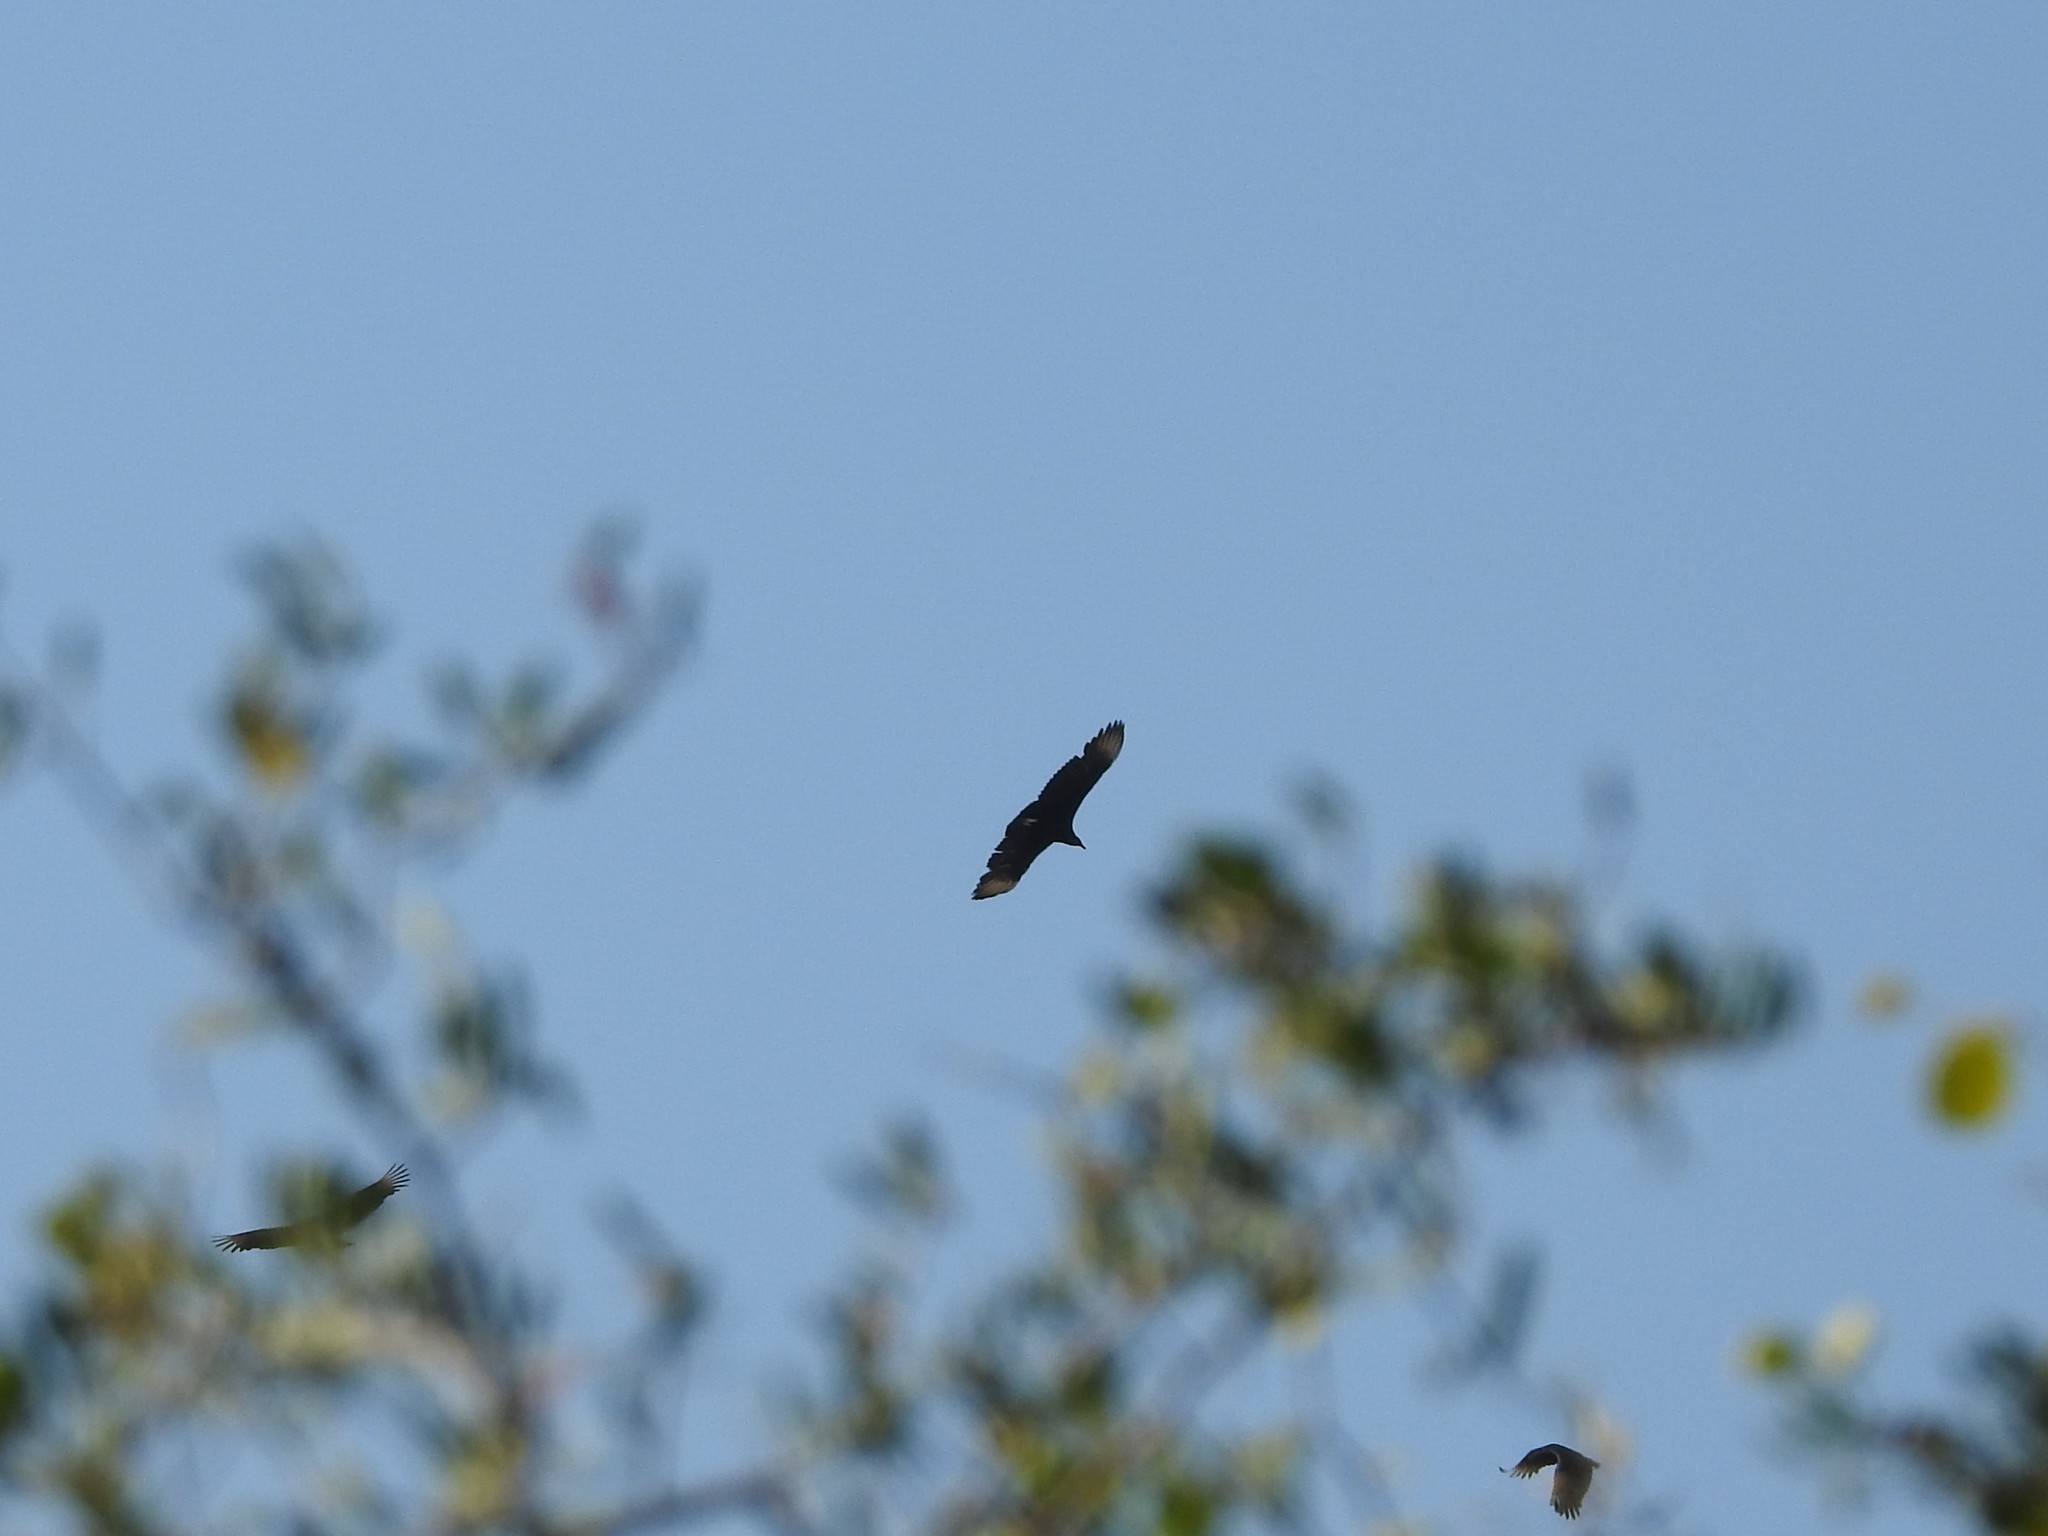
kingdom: Animalia
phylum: Chordata
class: Aves
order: Accipitriformes
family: Cathartidae
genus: Coragyps
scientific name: Coragyps atratus
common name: Black vulture
